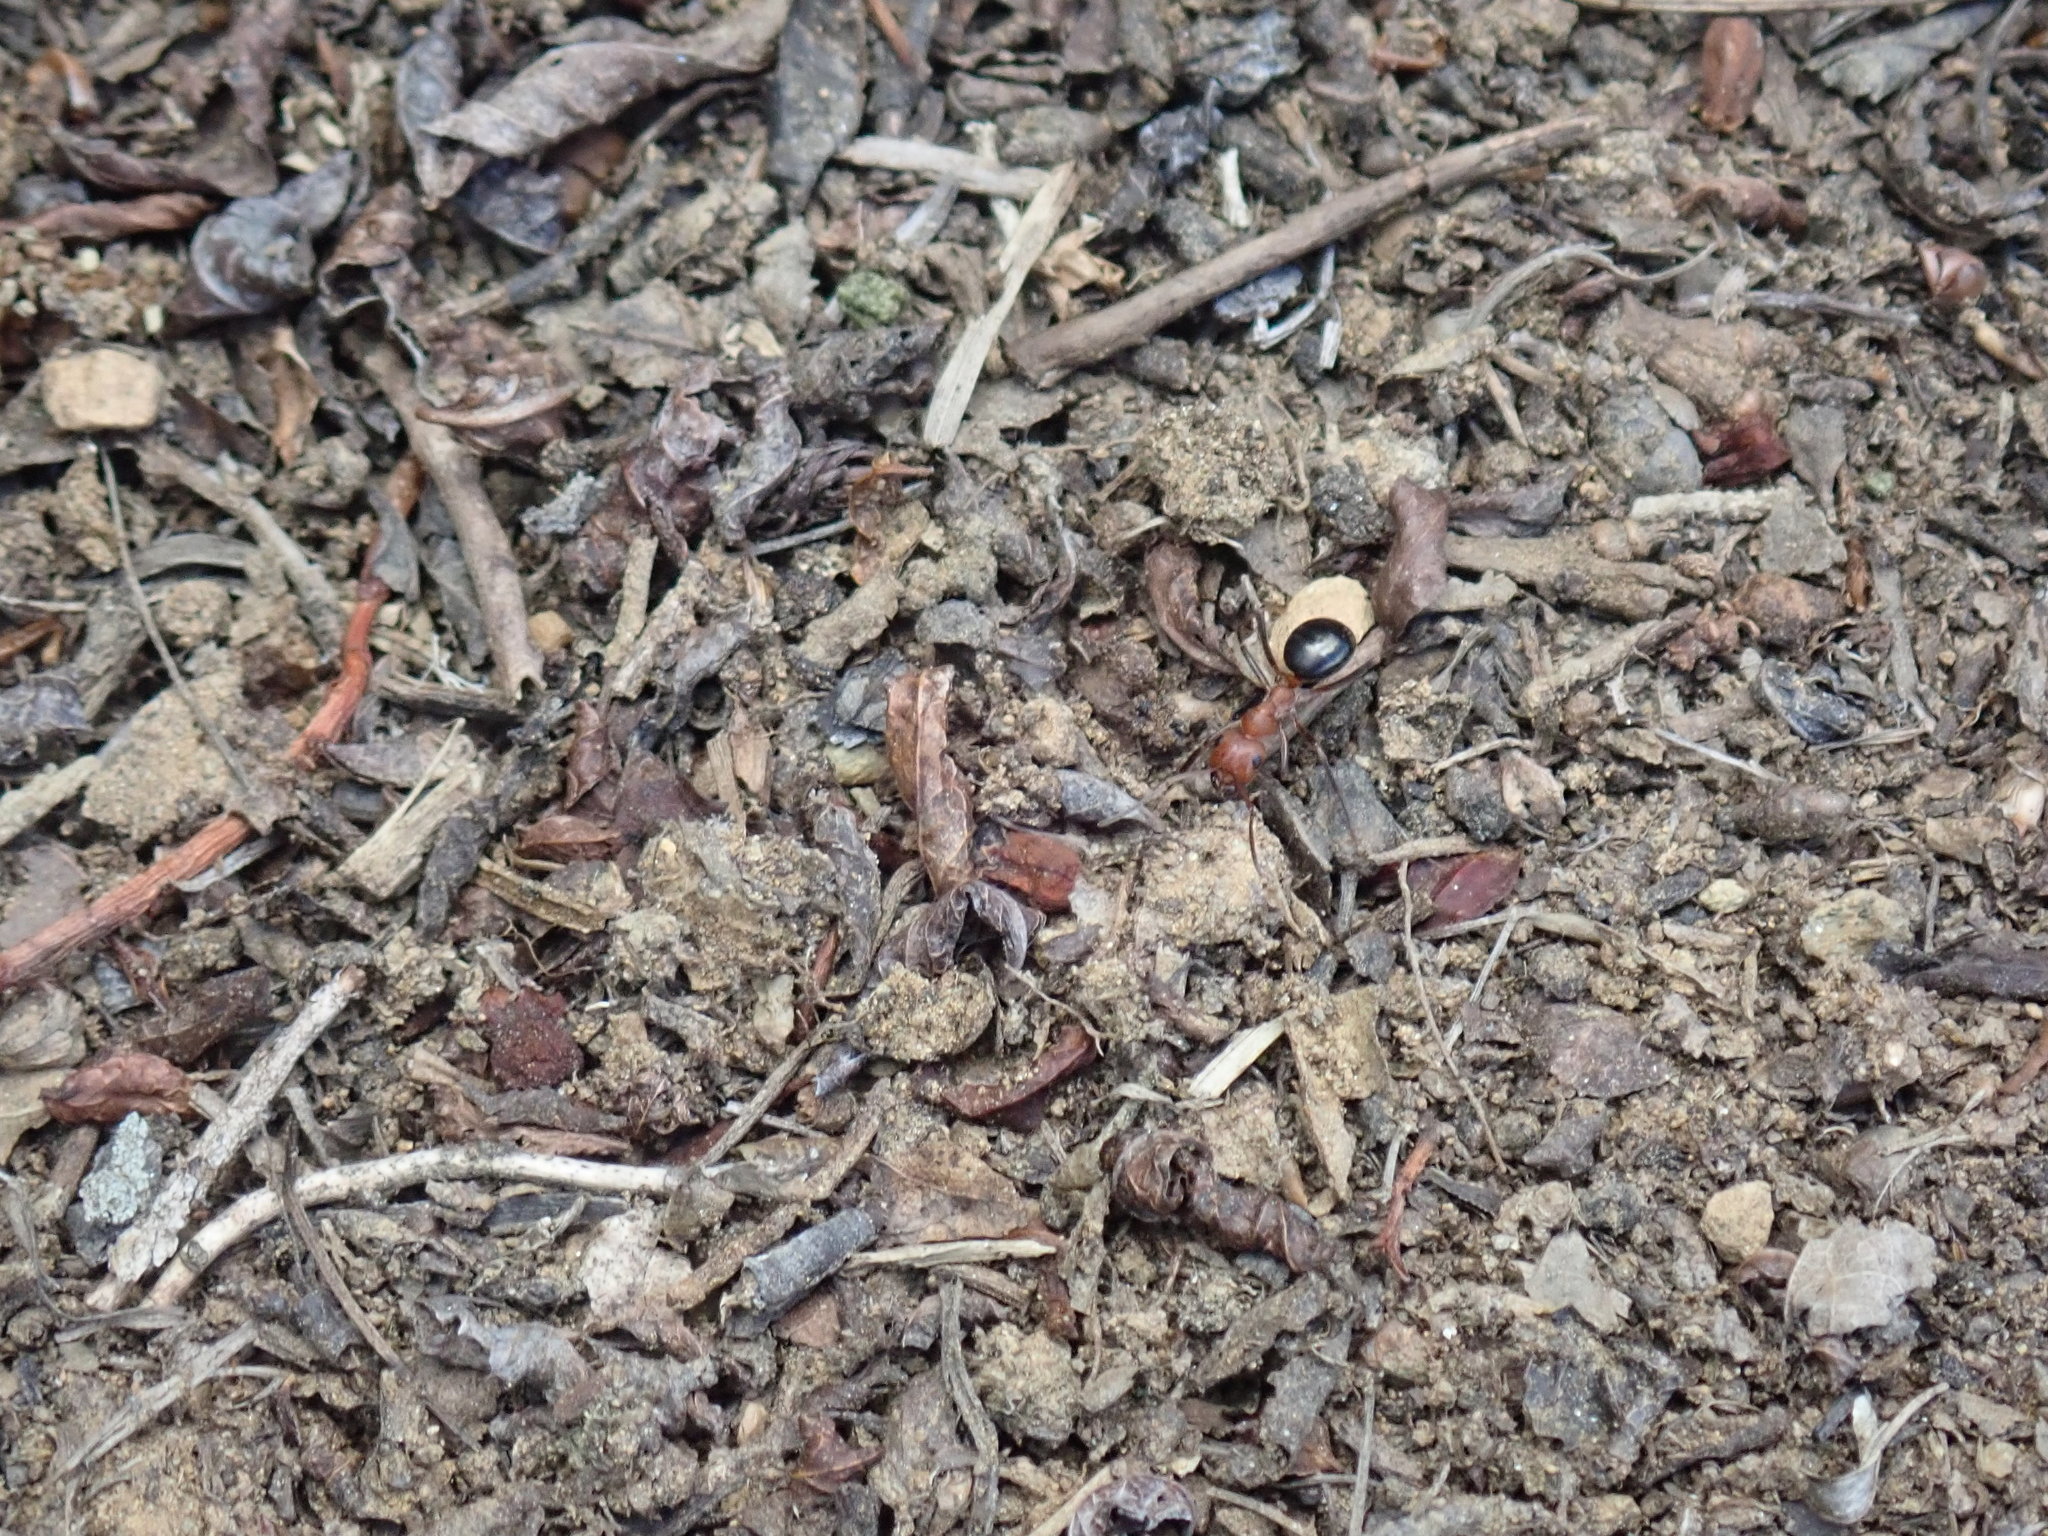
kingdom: Animalia
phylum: Arthropoda
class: Insecta
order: Hymenoptera
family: Formicidae
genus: Formica
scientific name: Formica exsectoides
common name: Allegheny mound ant
